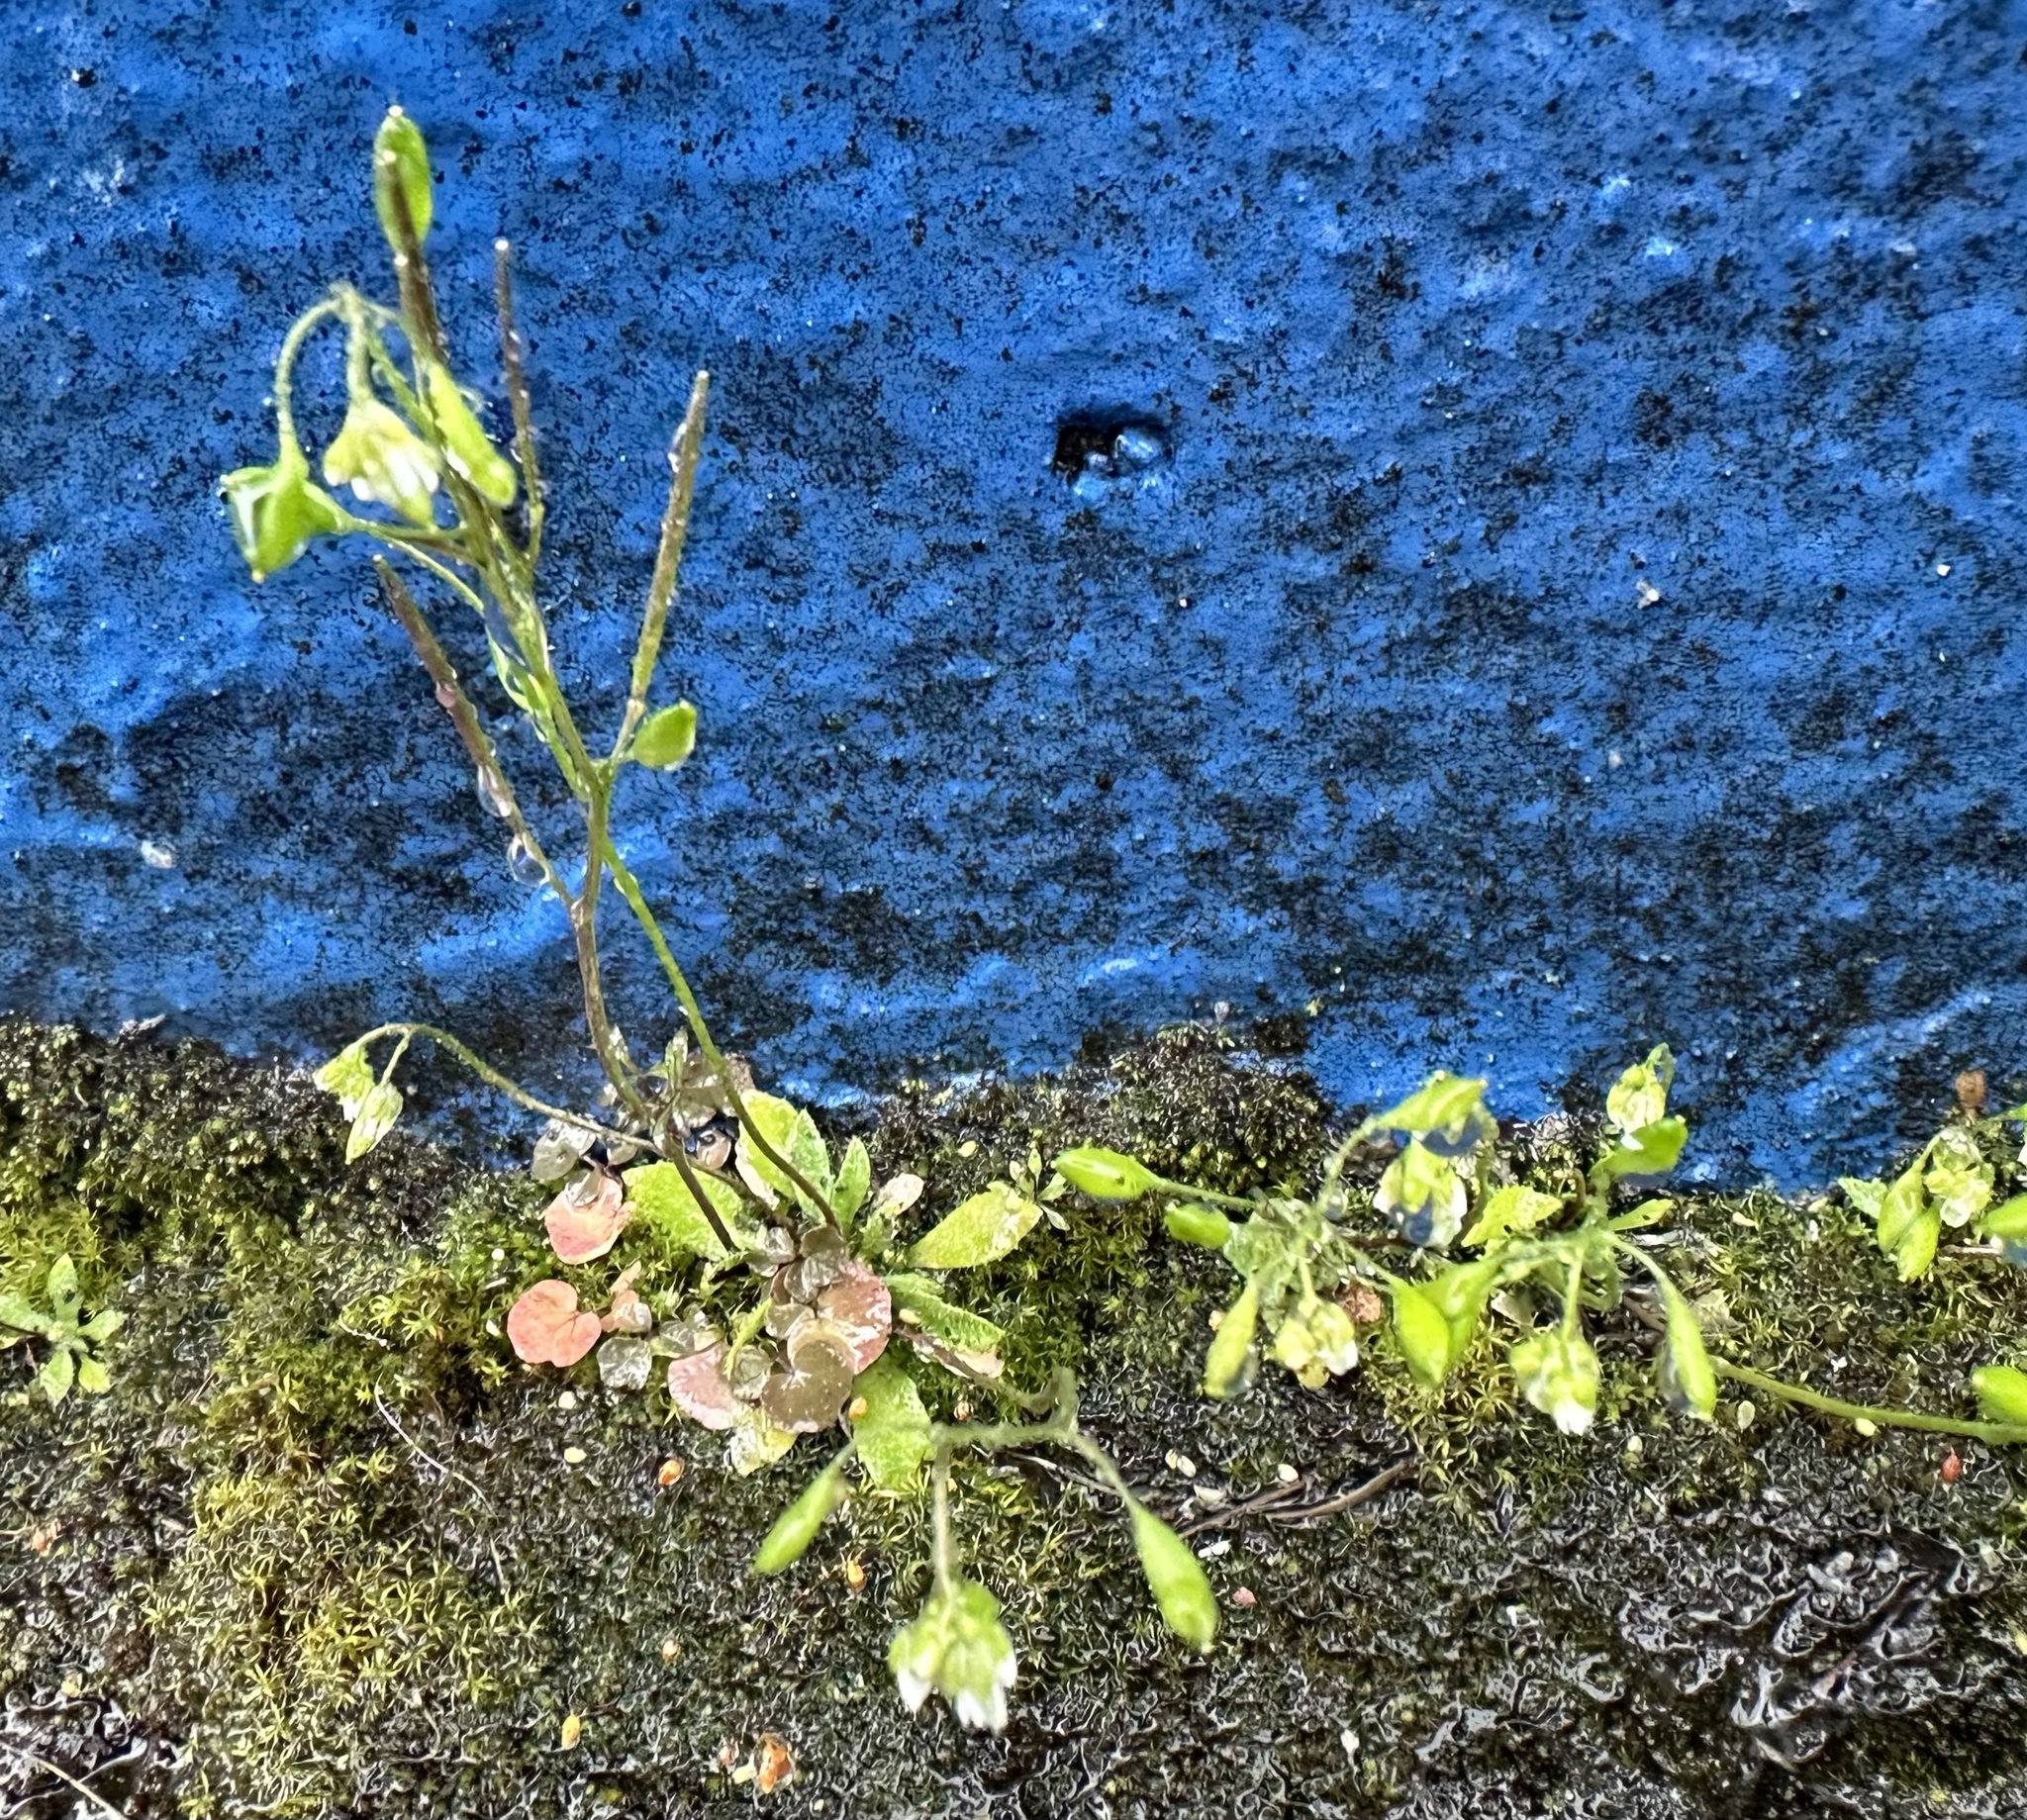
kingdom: Plantae
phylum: Tracheophyta
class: Magnoliopsida
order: Brassicales
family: Brassicaceae
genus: Draba
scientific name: Draba verna
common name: Spring draba
